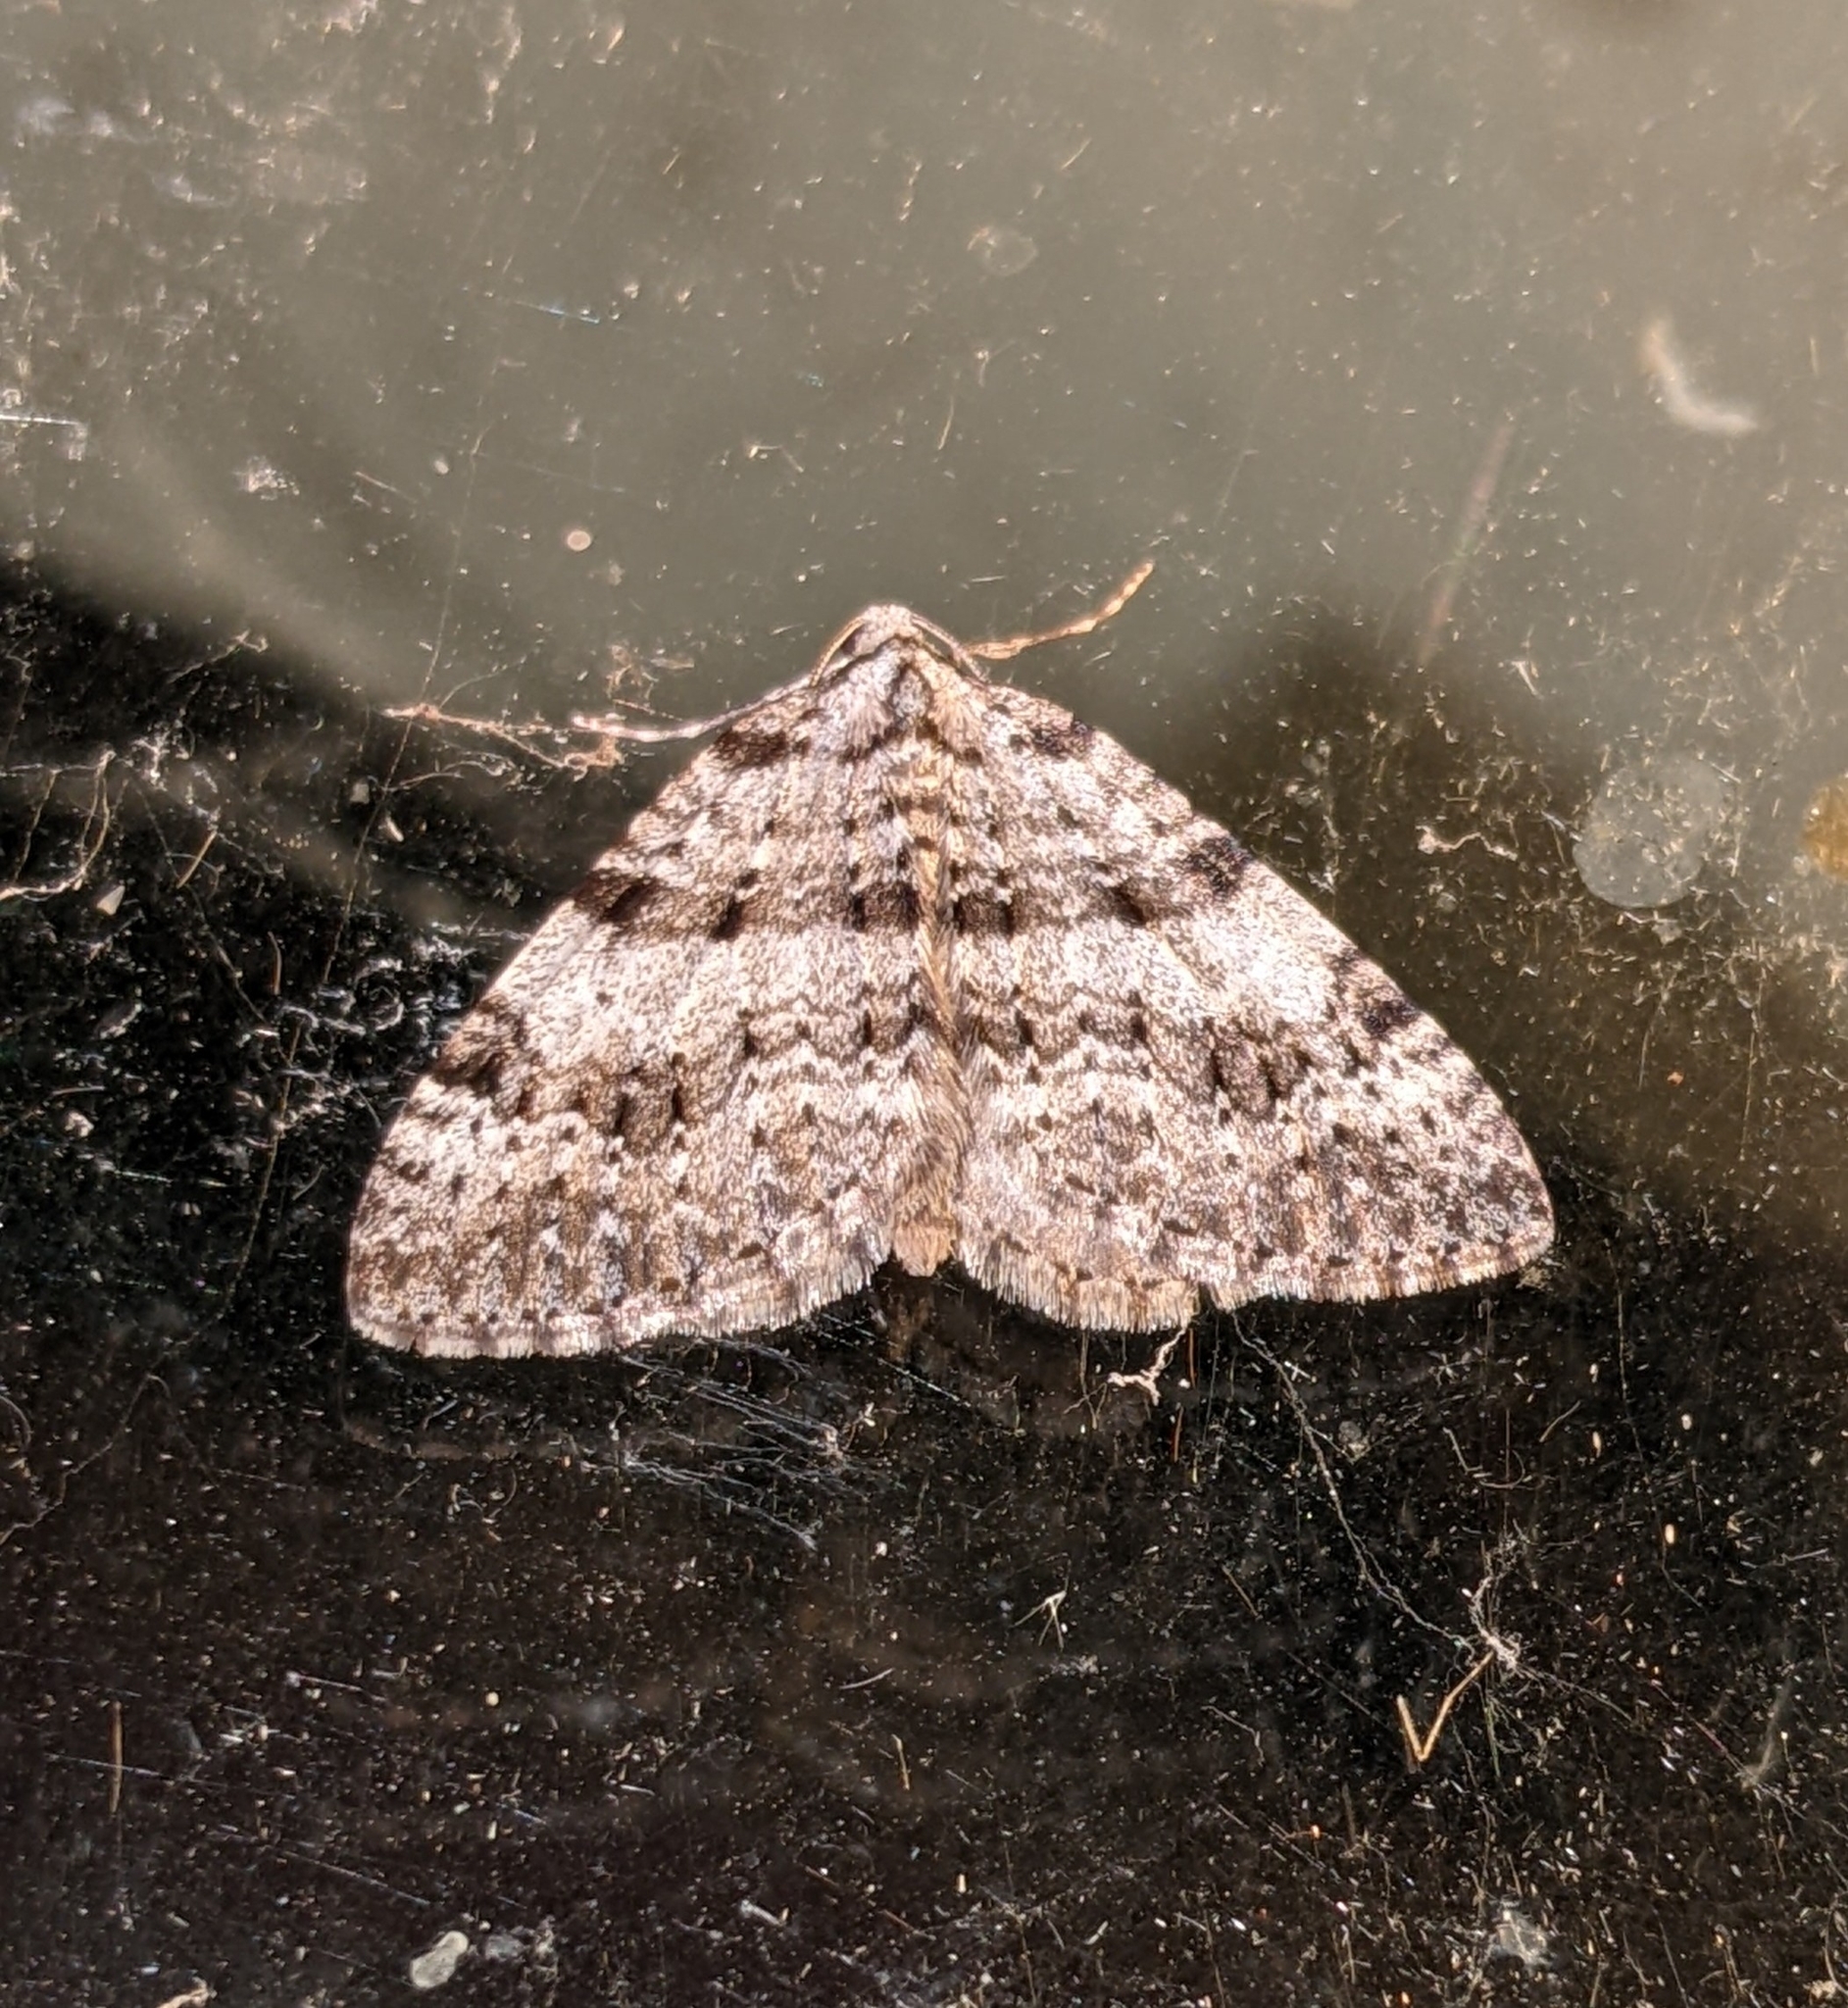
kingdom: Animalia
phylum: Arthropoda
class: Insecta
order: Lepidoptera
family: Geometridae
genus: Perizoma
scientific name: Perizoma curvilinea
